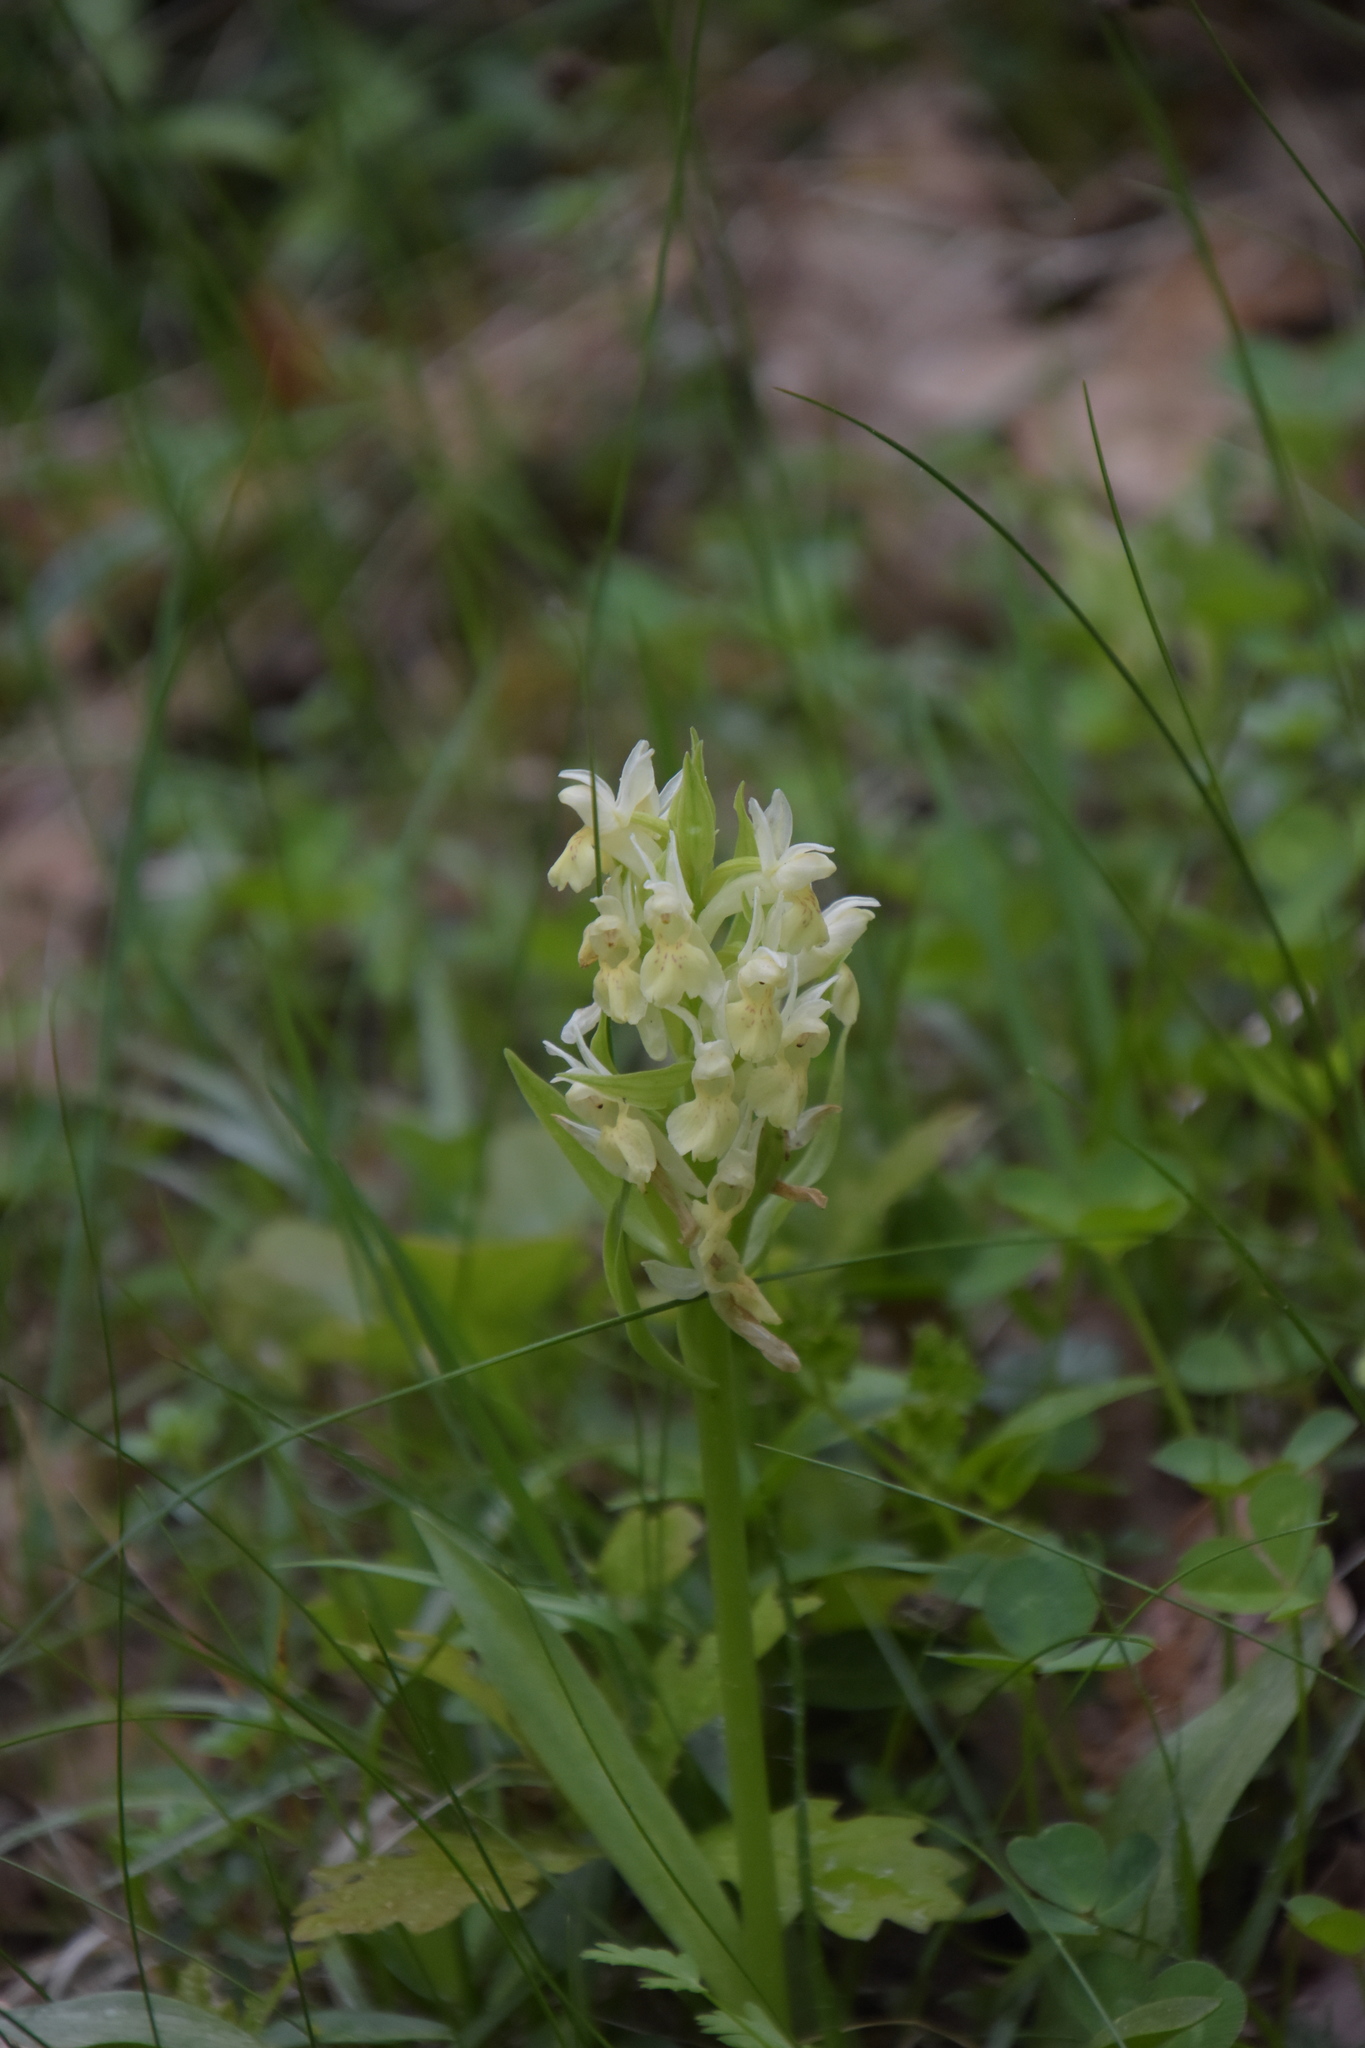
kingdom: Plantae
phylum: Tracheophyta
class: Liliopsida
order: Asparagales
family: Orchidaceae
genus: Dactylorhiza
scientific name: Dactylorhiza sambucina
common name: Elder-flowered orchid
